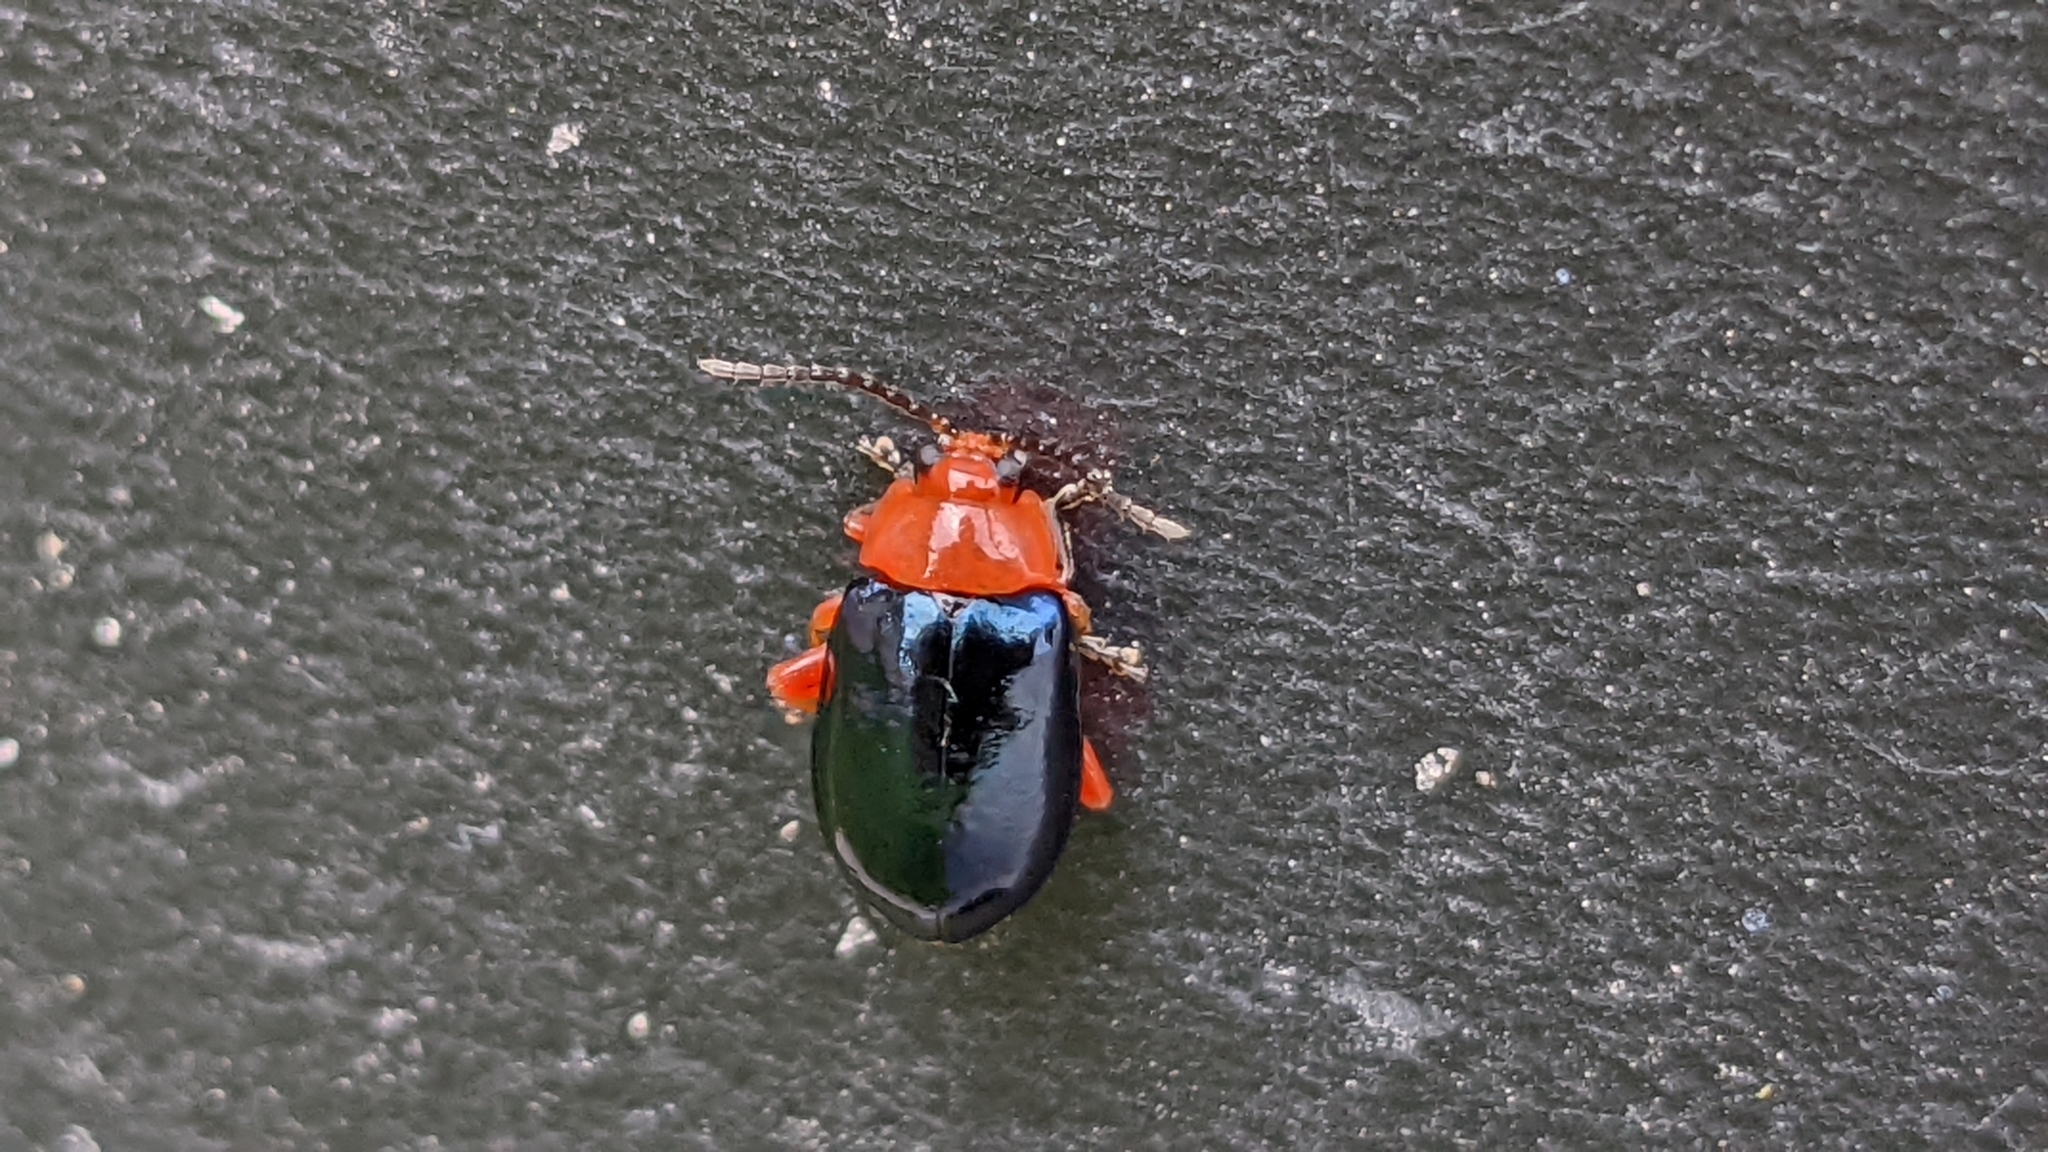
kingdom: Animalia
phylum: Arthropoda
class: Insecta
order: Coleoptera
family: Chrysomelidae
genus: Asphaera
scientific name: Asphaera lustrans
